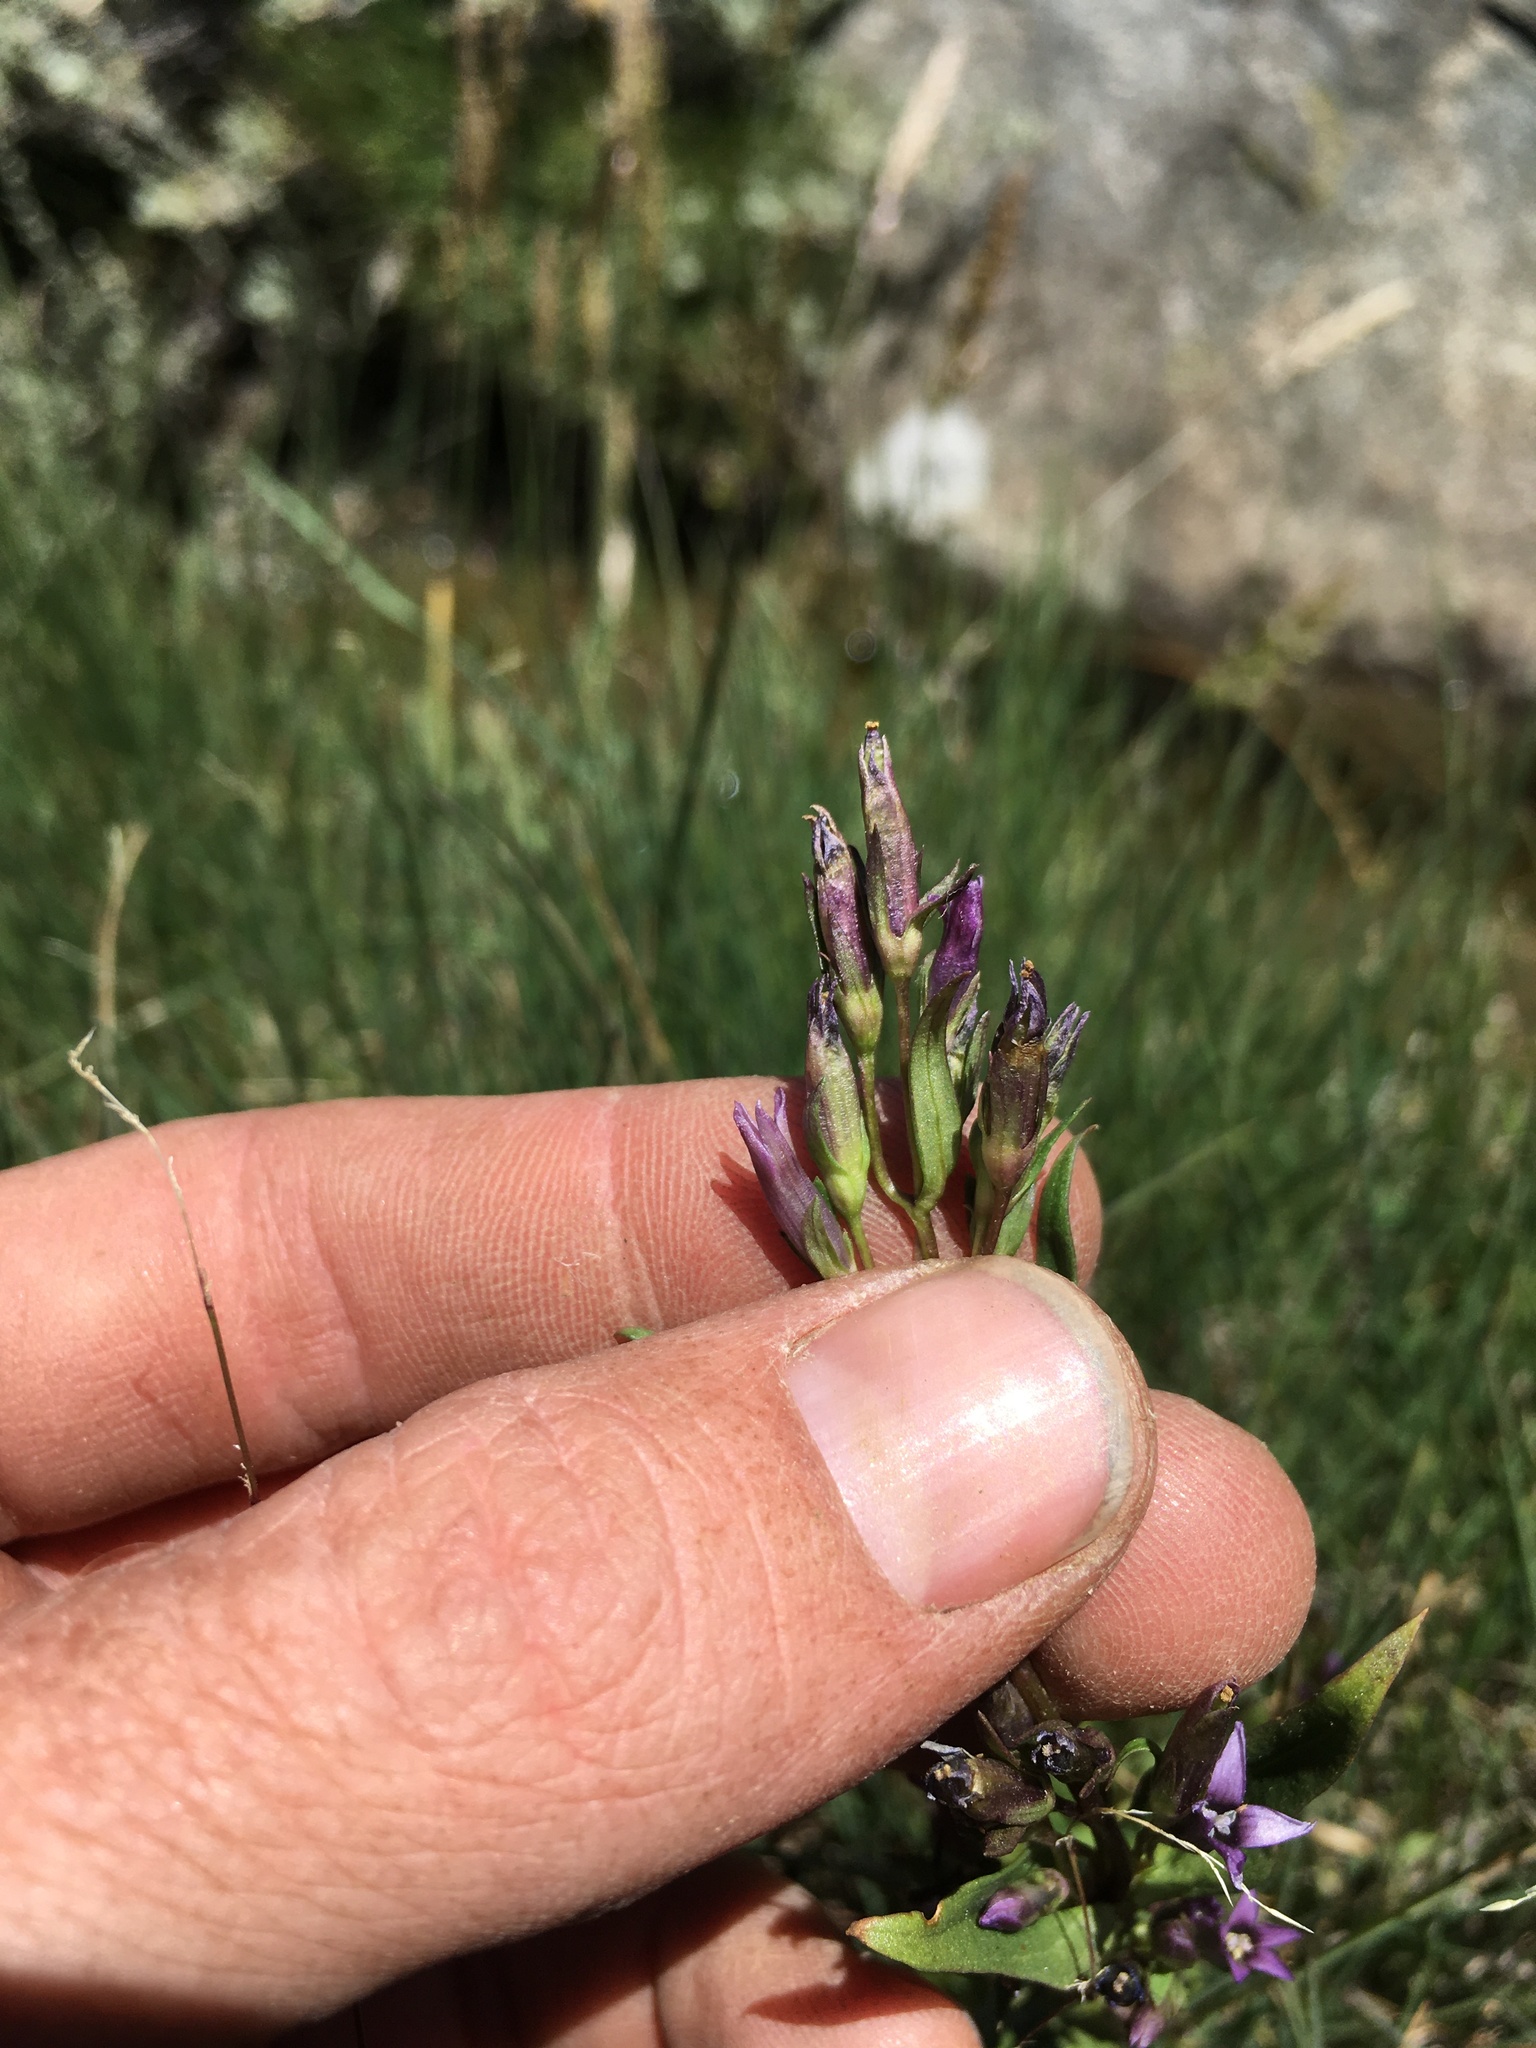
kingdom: Plantae
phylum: Tracheophyta
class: Magnoliopsida
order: Gentianales
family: Gentianaceae
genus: Gentianella
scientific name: Gentianella amarella
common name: Autumn gentian
